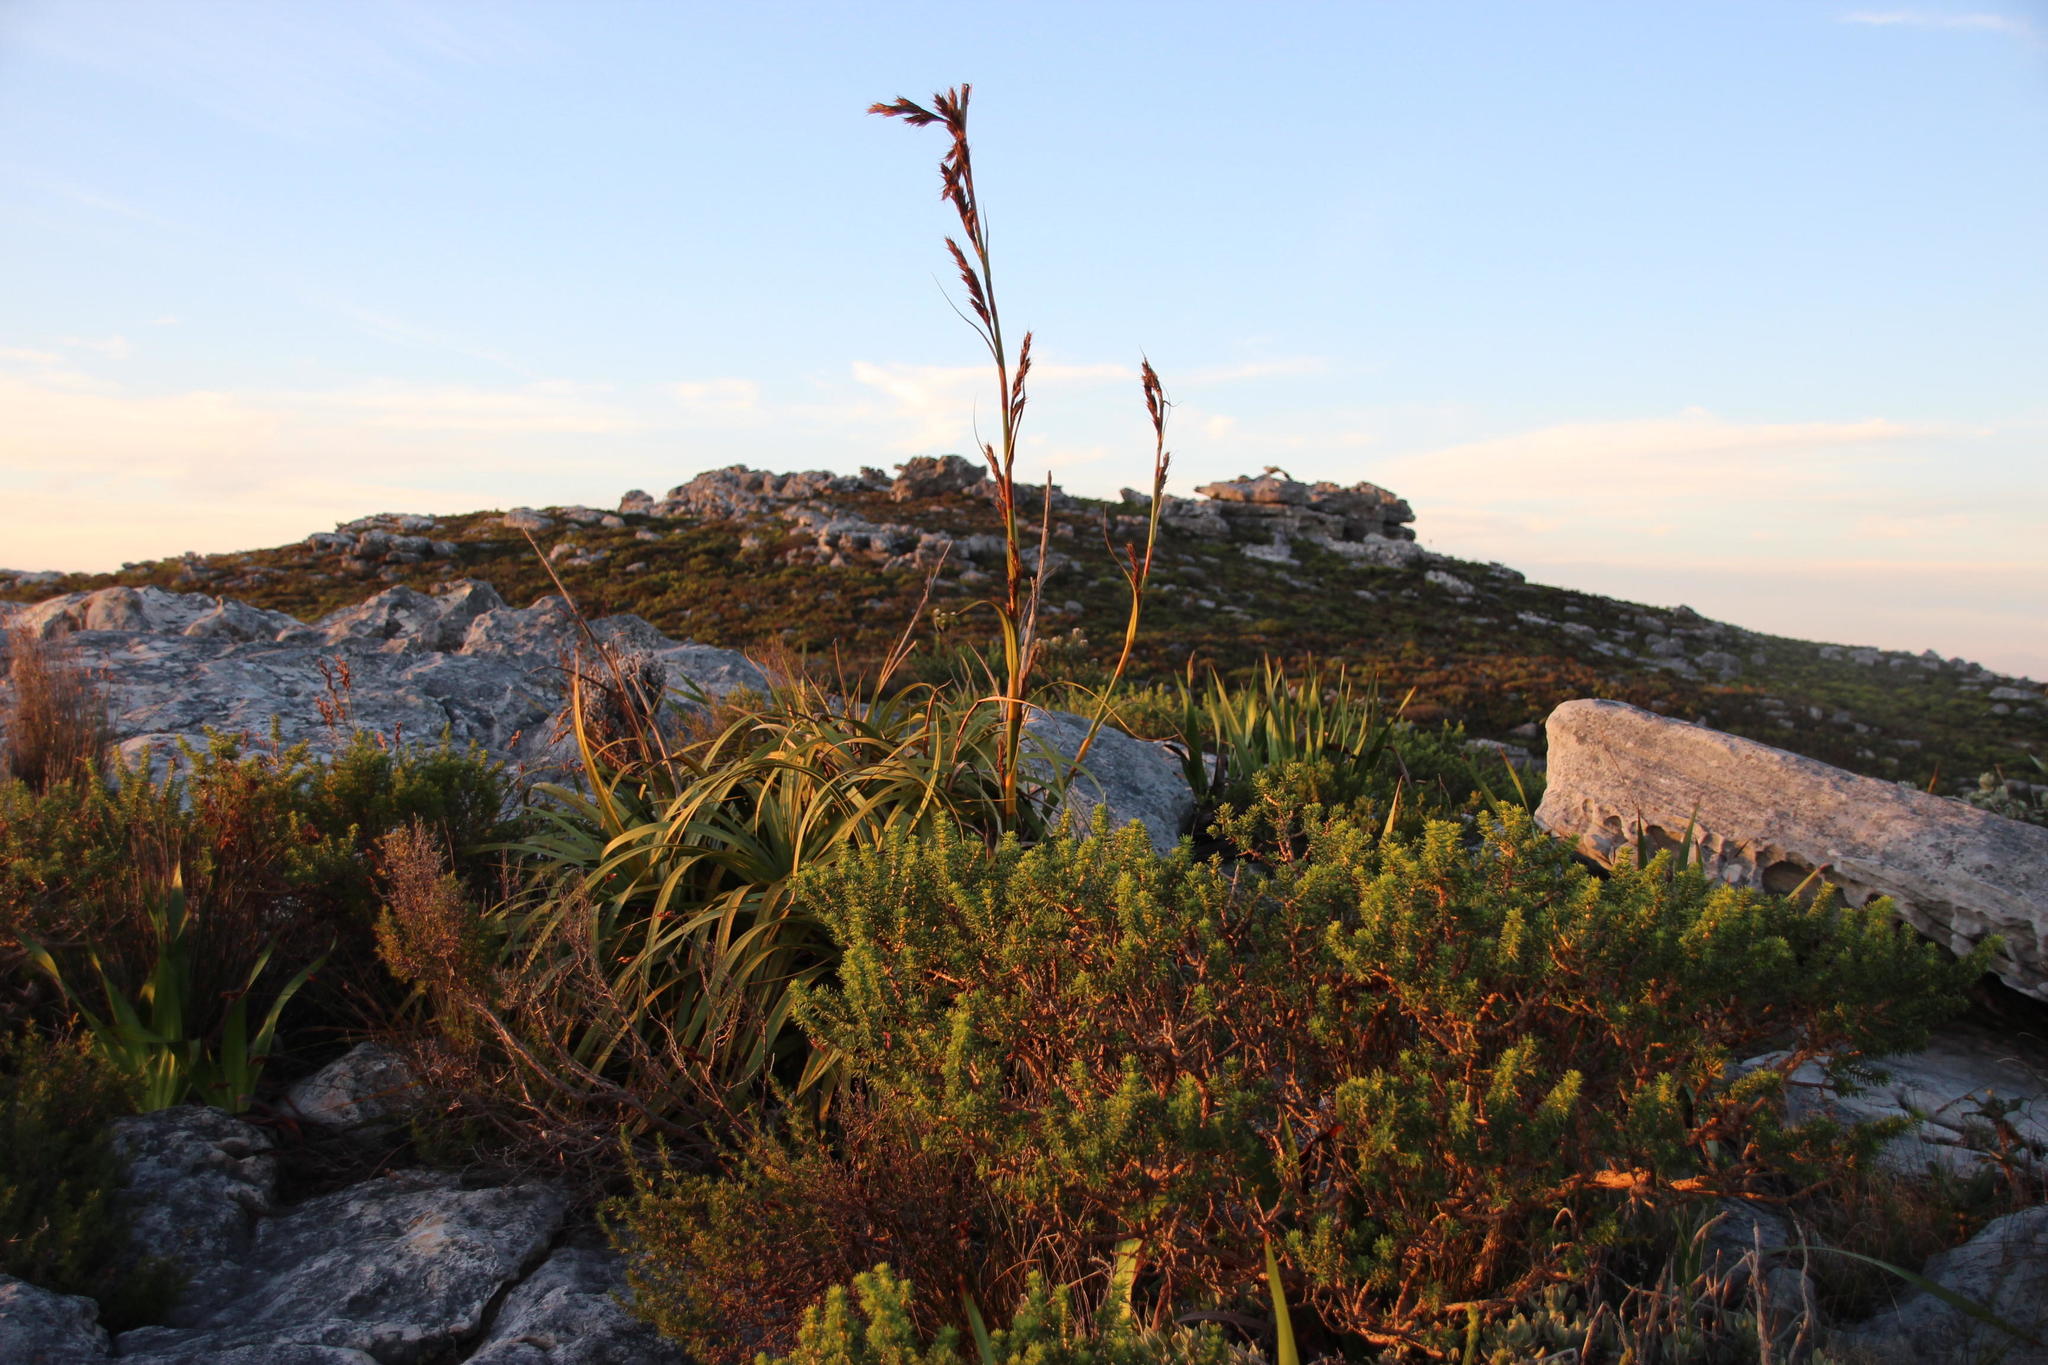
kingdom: Plantae
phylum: Tracheophyta
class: Liliopsida
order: Poales
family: Cyperaceae
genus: Tetraria
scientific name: Tetraria thermalis
